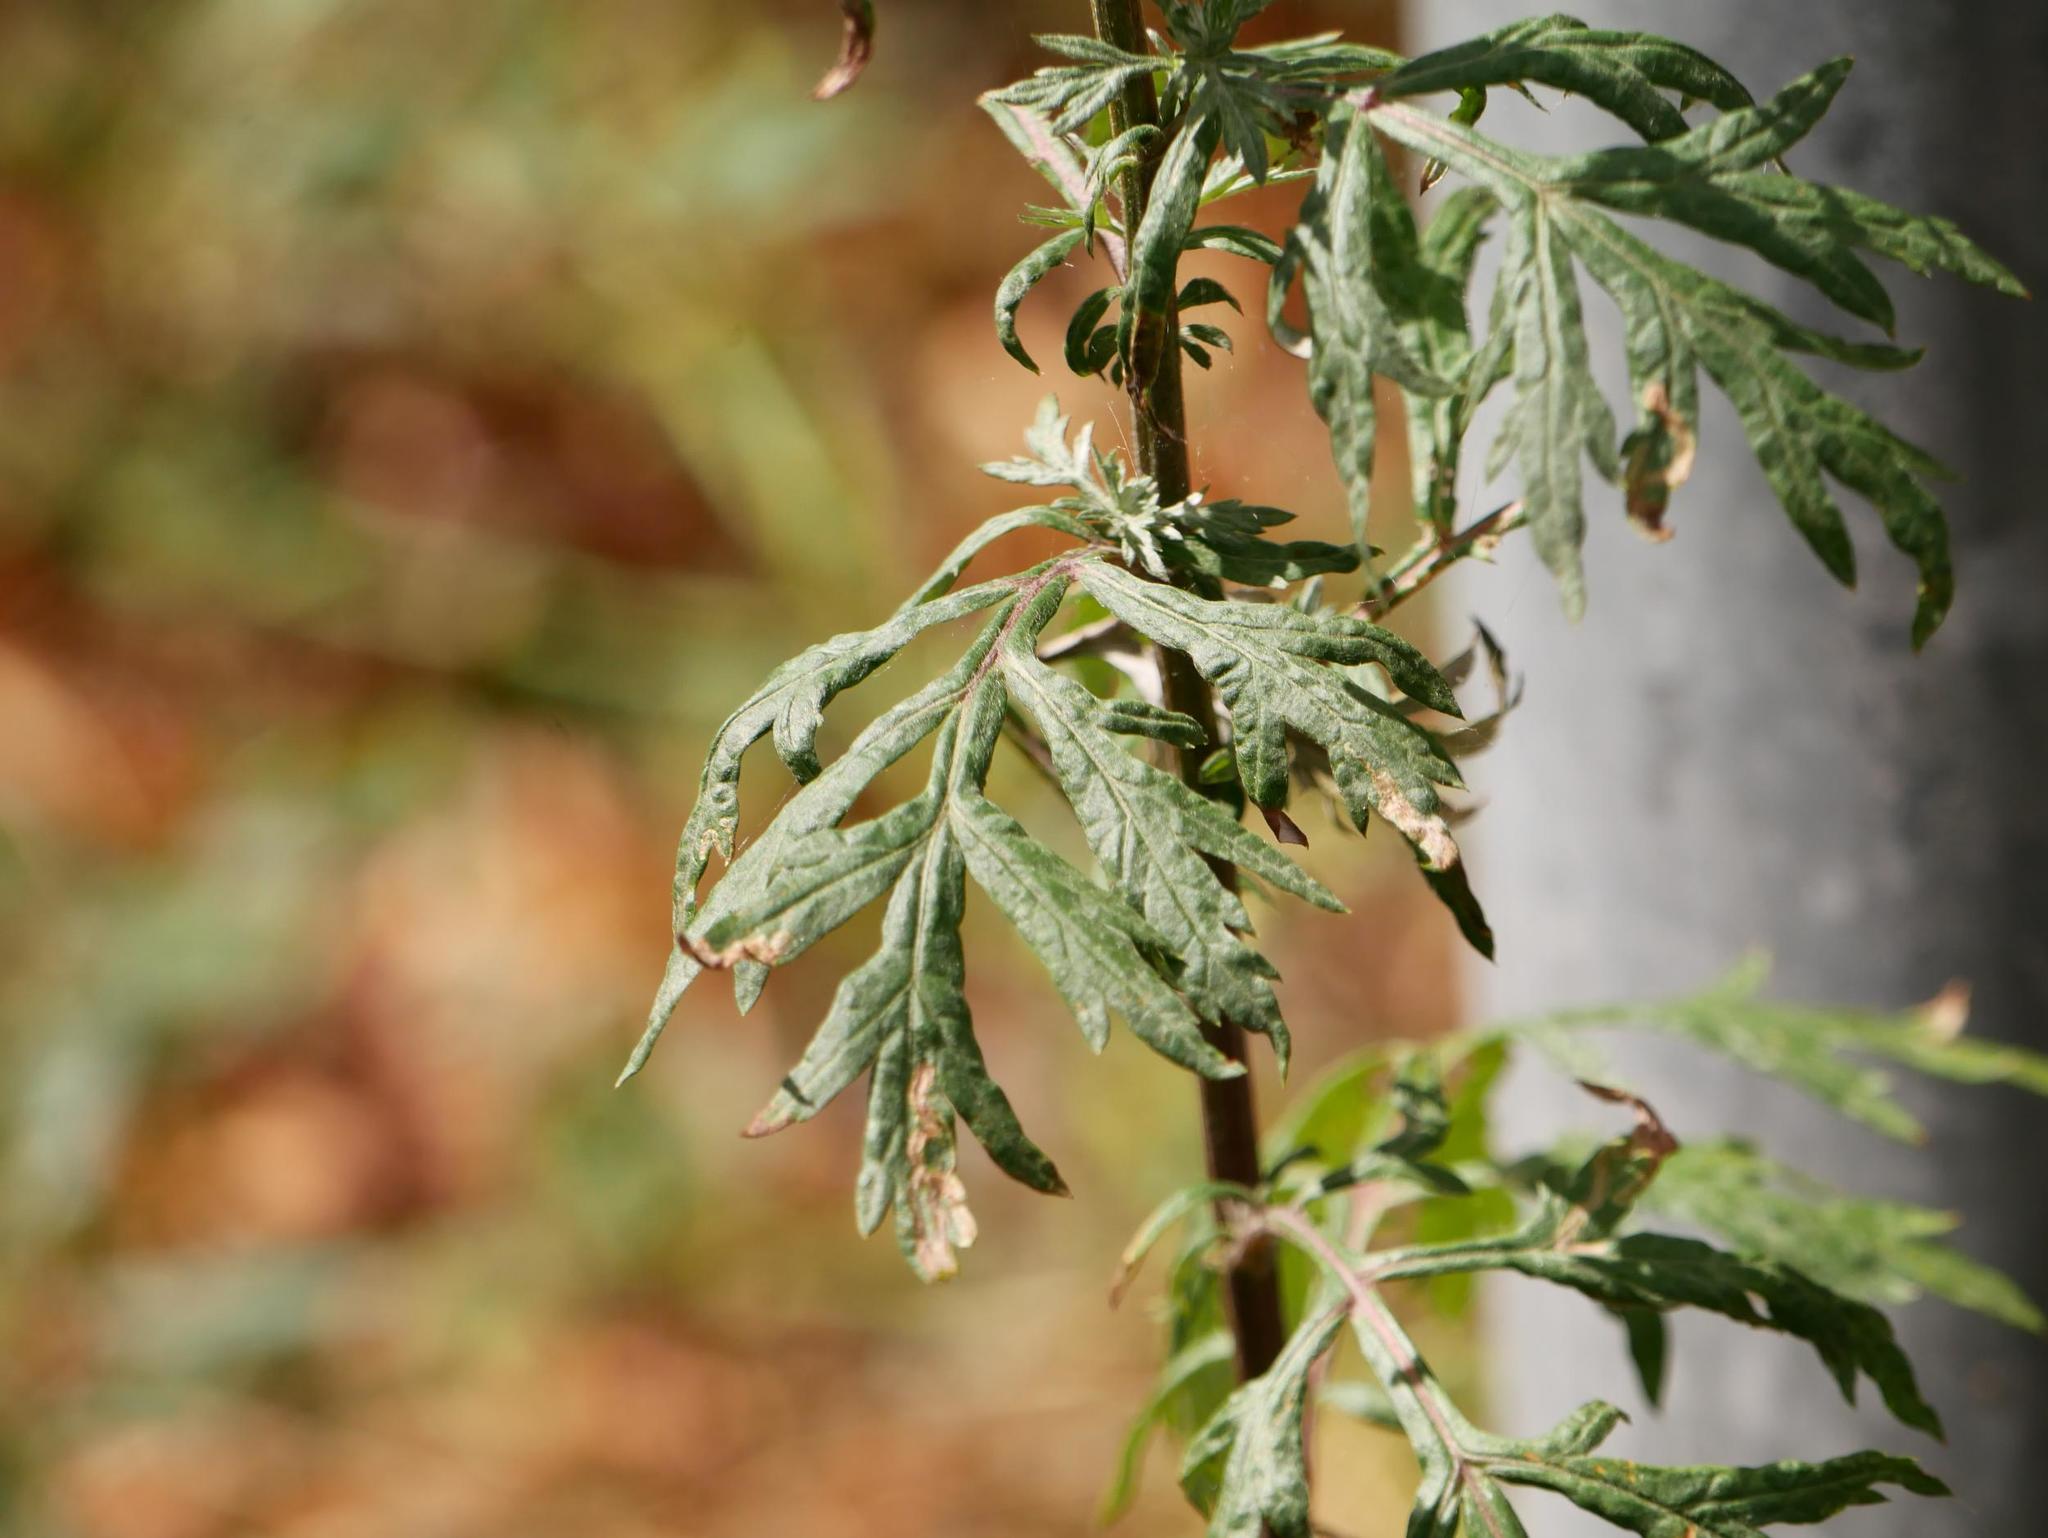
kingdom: Plantae
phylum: Tracheophyta
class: Magnoliopsida
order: Asterales
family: Asteraceae
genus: Artemisia
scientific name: Artemisia vulgaris
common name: Mugwort
